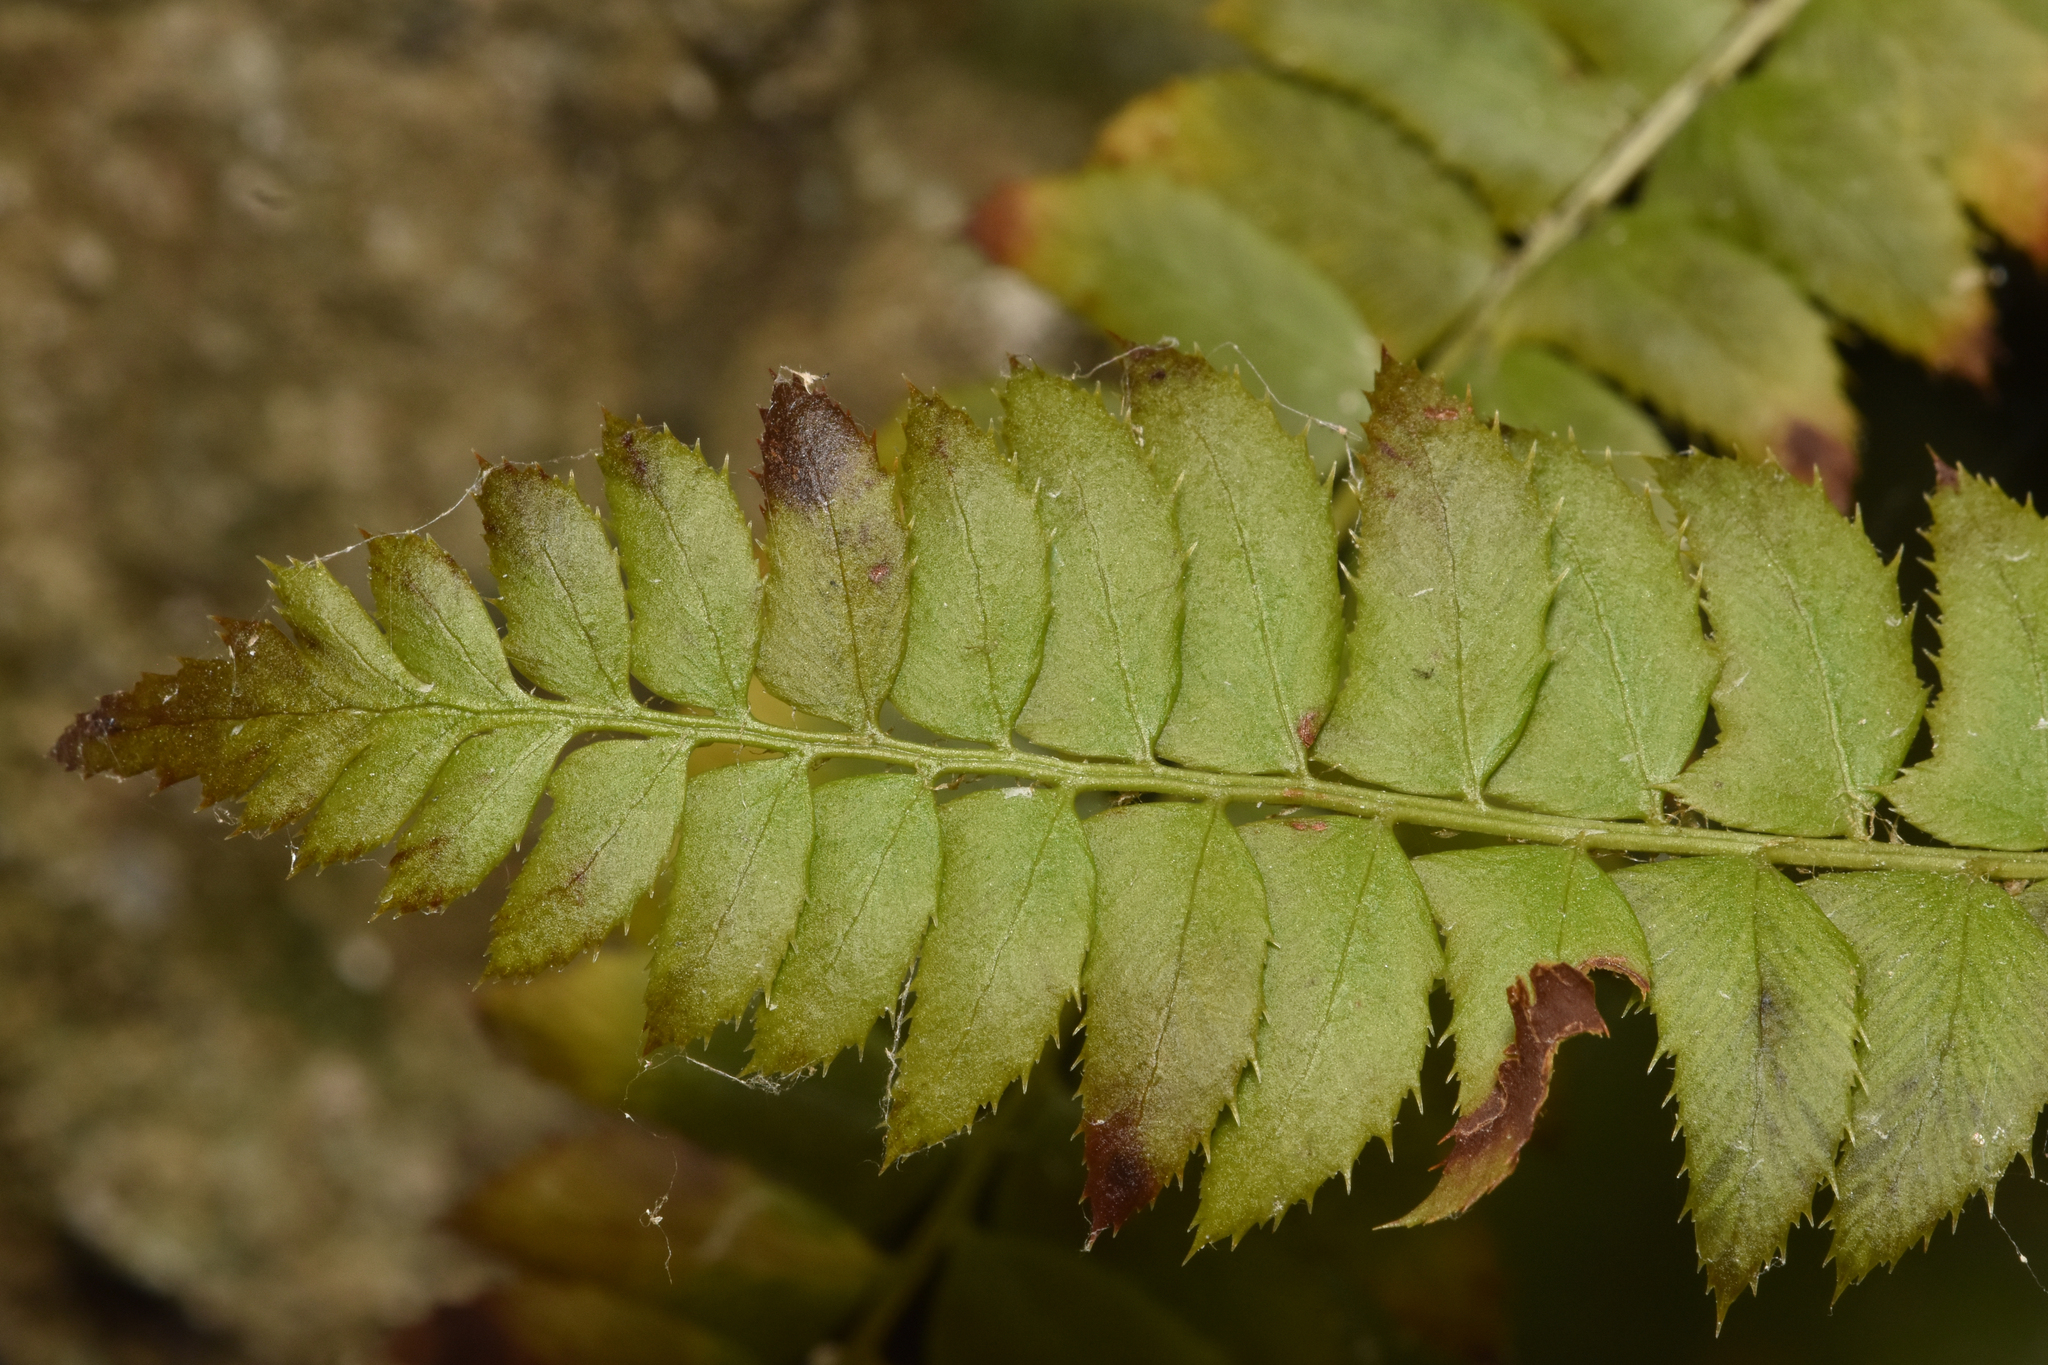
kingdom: Plantae
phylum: Tracheophyta
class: Polypodiopsida
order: Polypodiales
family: Dryopteridaceae
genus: Polystichum
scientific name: Polystichum lonchitis
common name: Holly fern
